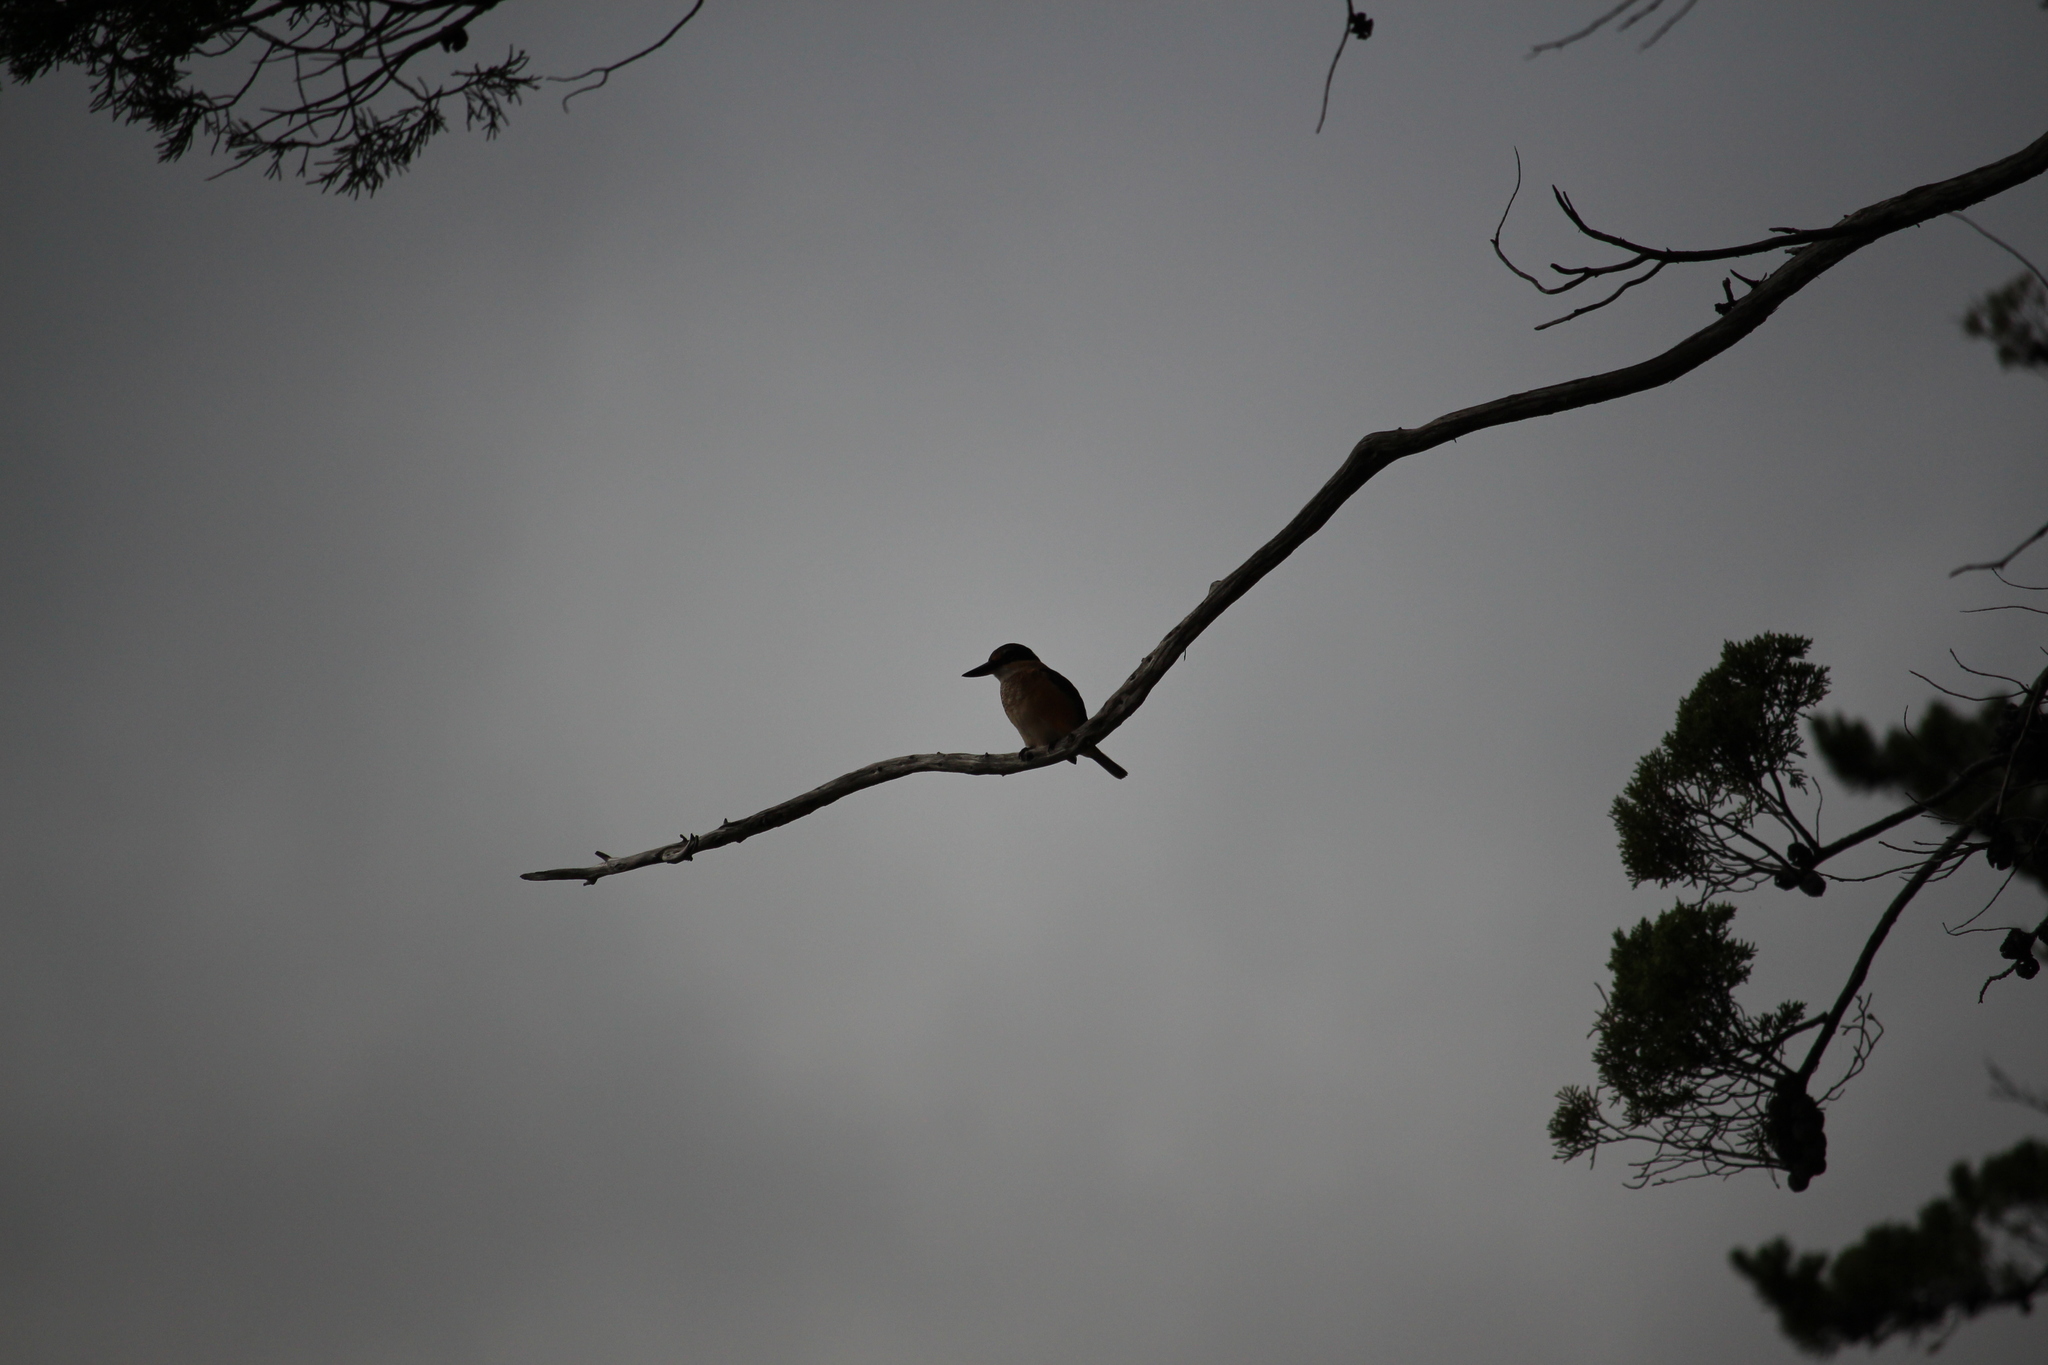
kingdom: Animalia
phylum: Chordata
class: Aves
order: Coraciiformes
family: Alcedinidae
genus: Todiramphus
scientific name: Todiramphus sanctus
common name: Sacred kingfisher
